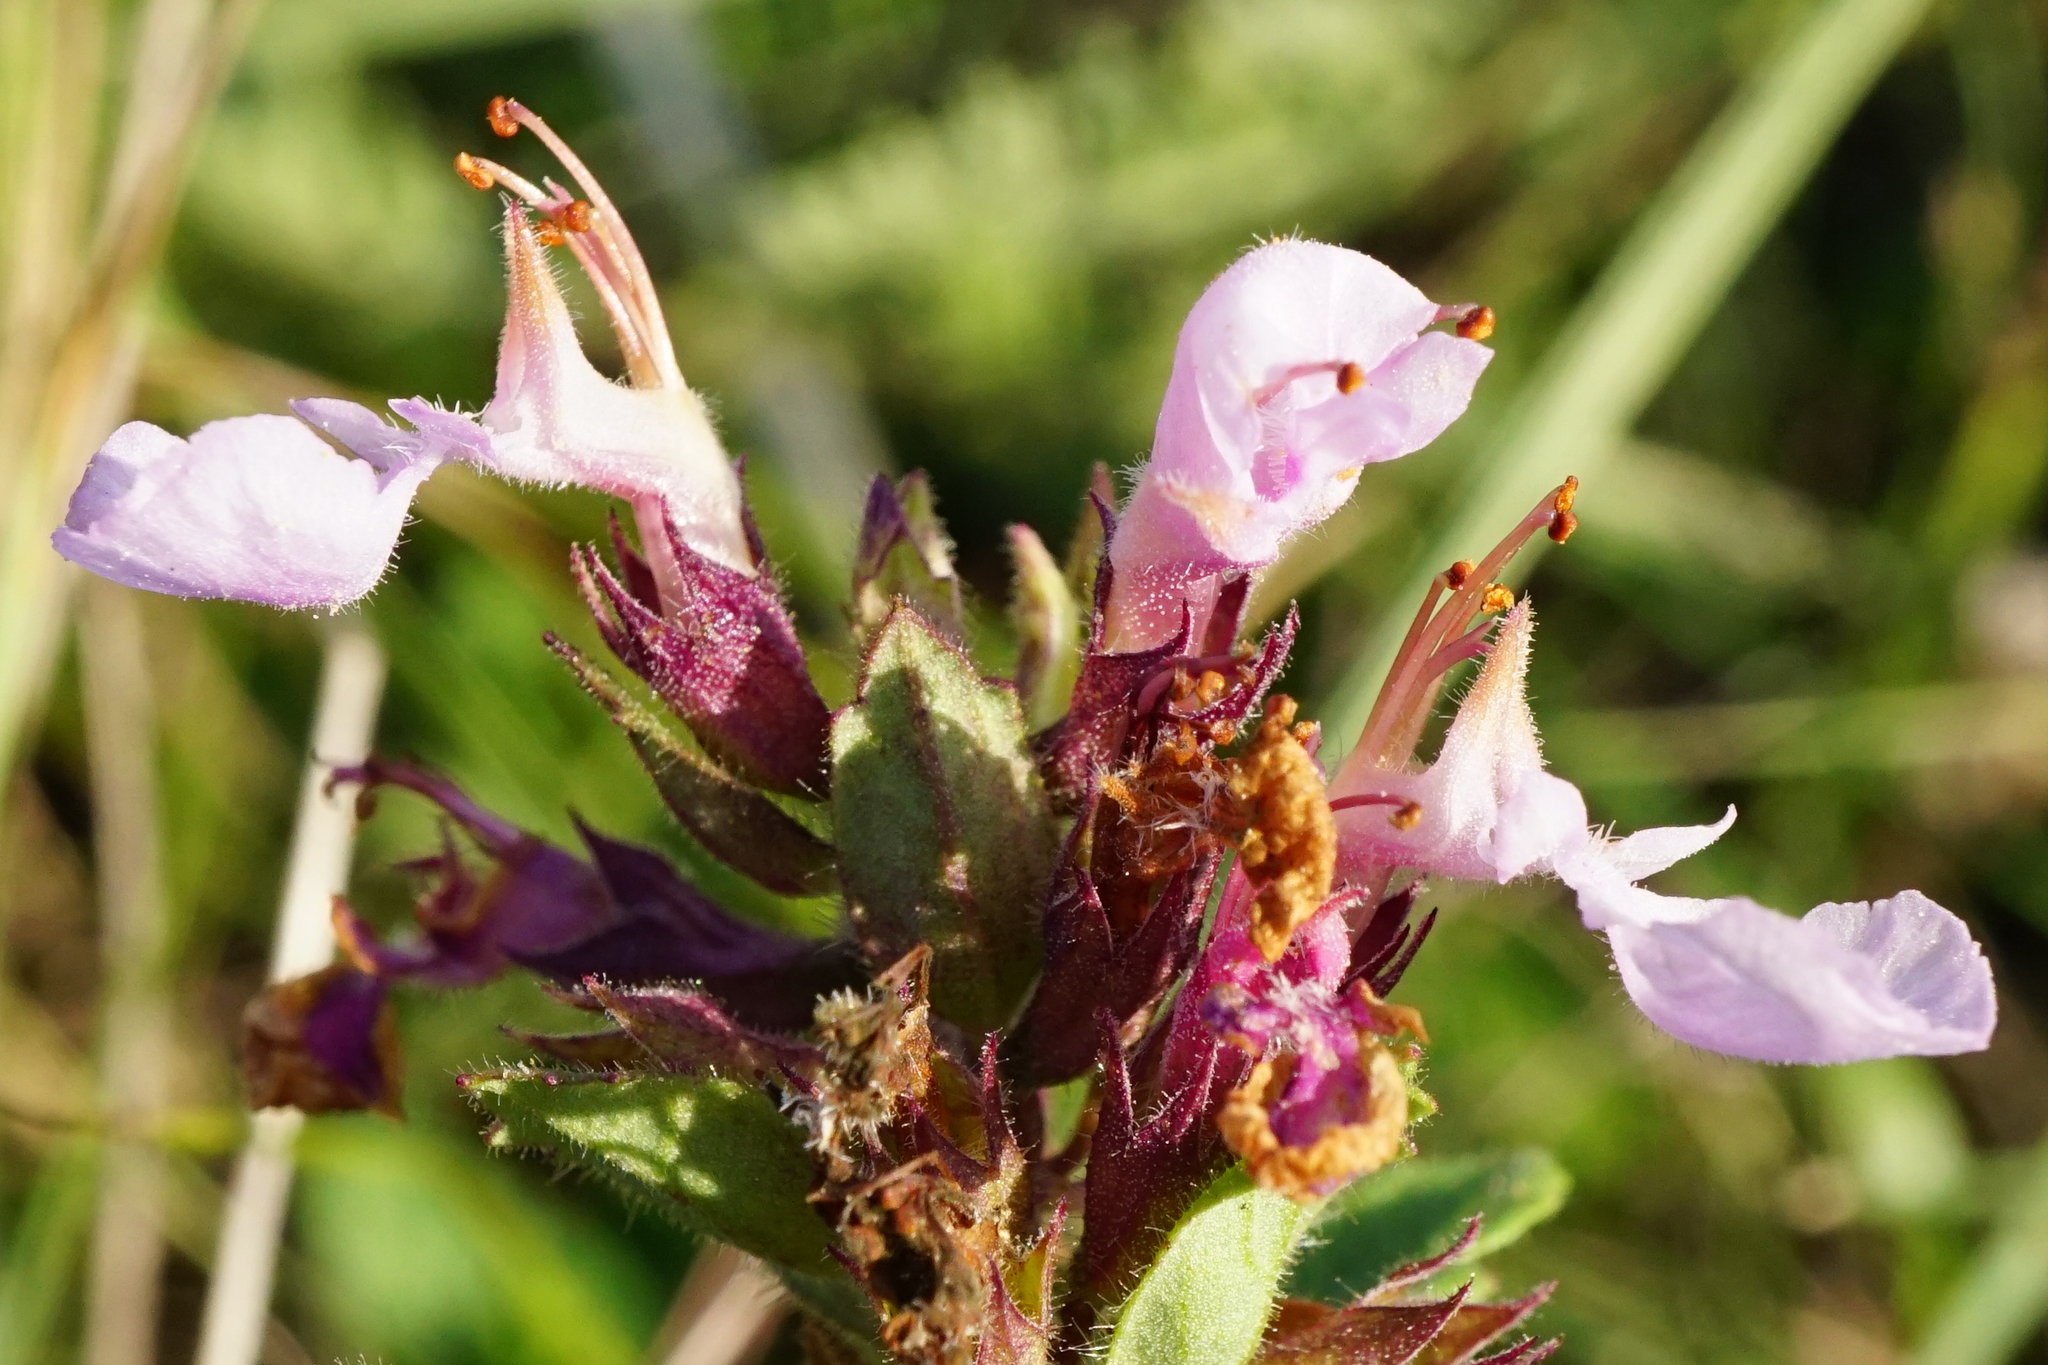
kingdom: Plantae
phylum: Tracheophyta
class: Magnoliopsida
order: Lamiales
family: Lamiaceae
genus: Teucrium
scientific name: Teucrium chamaedrys
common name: Wall germander
